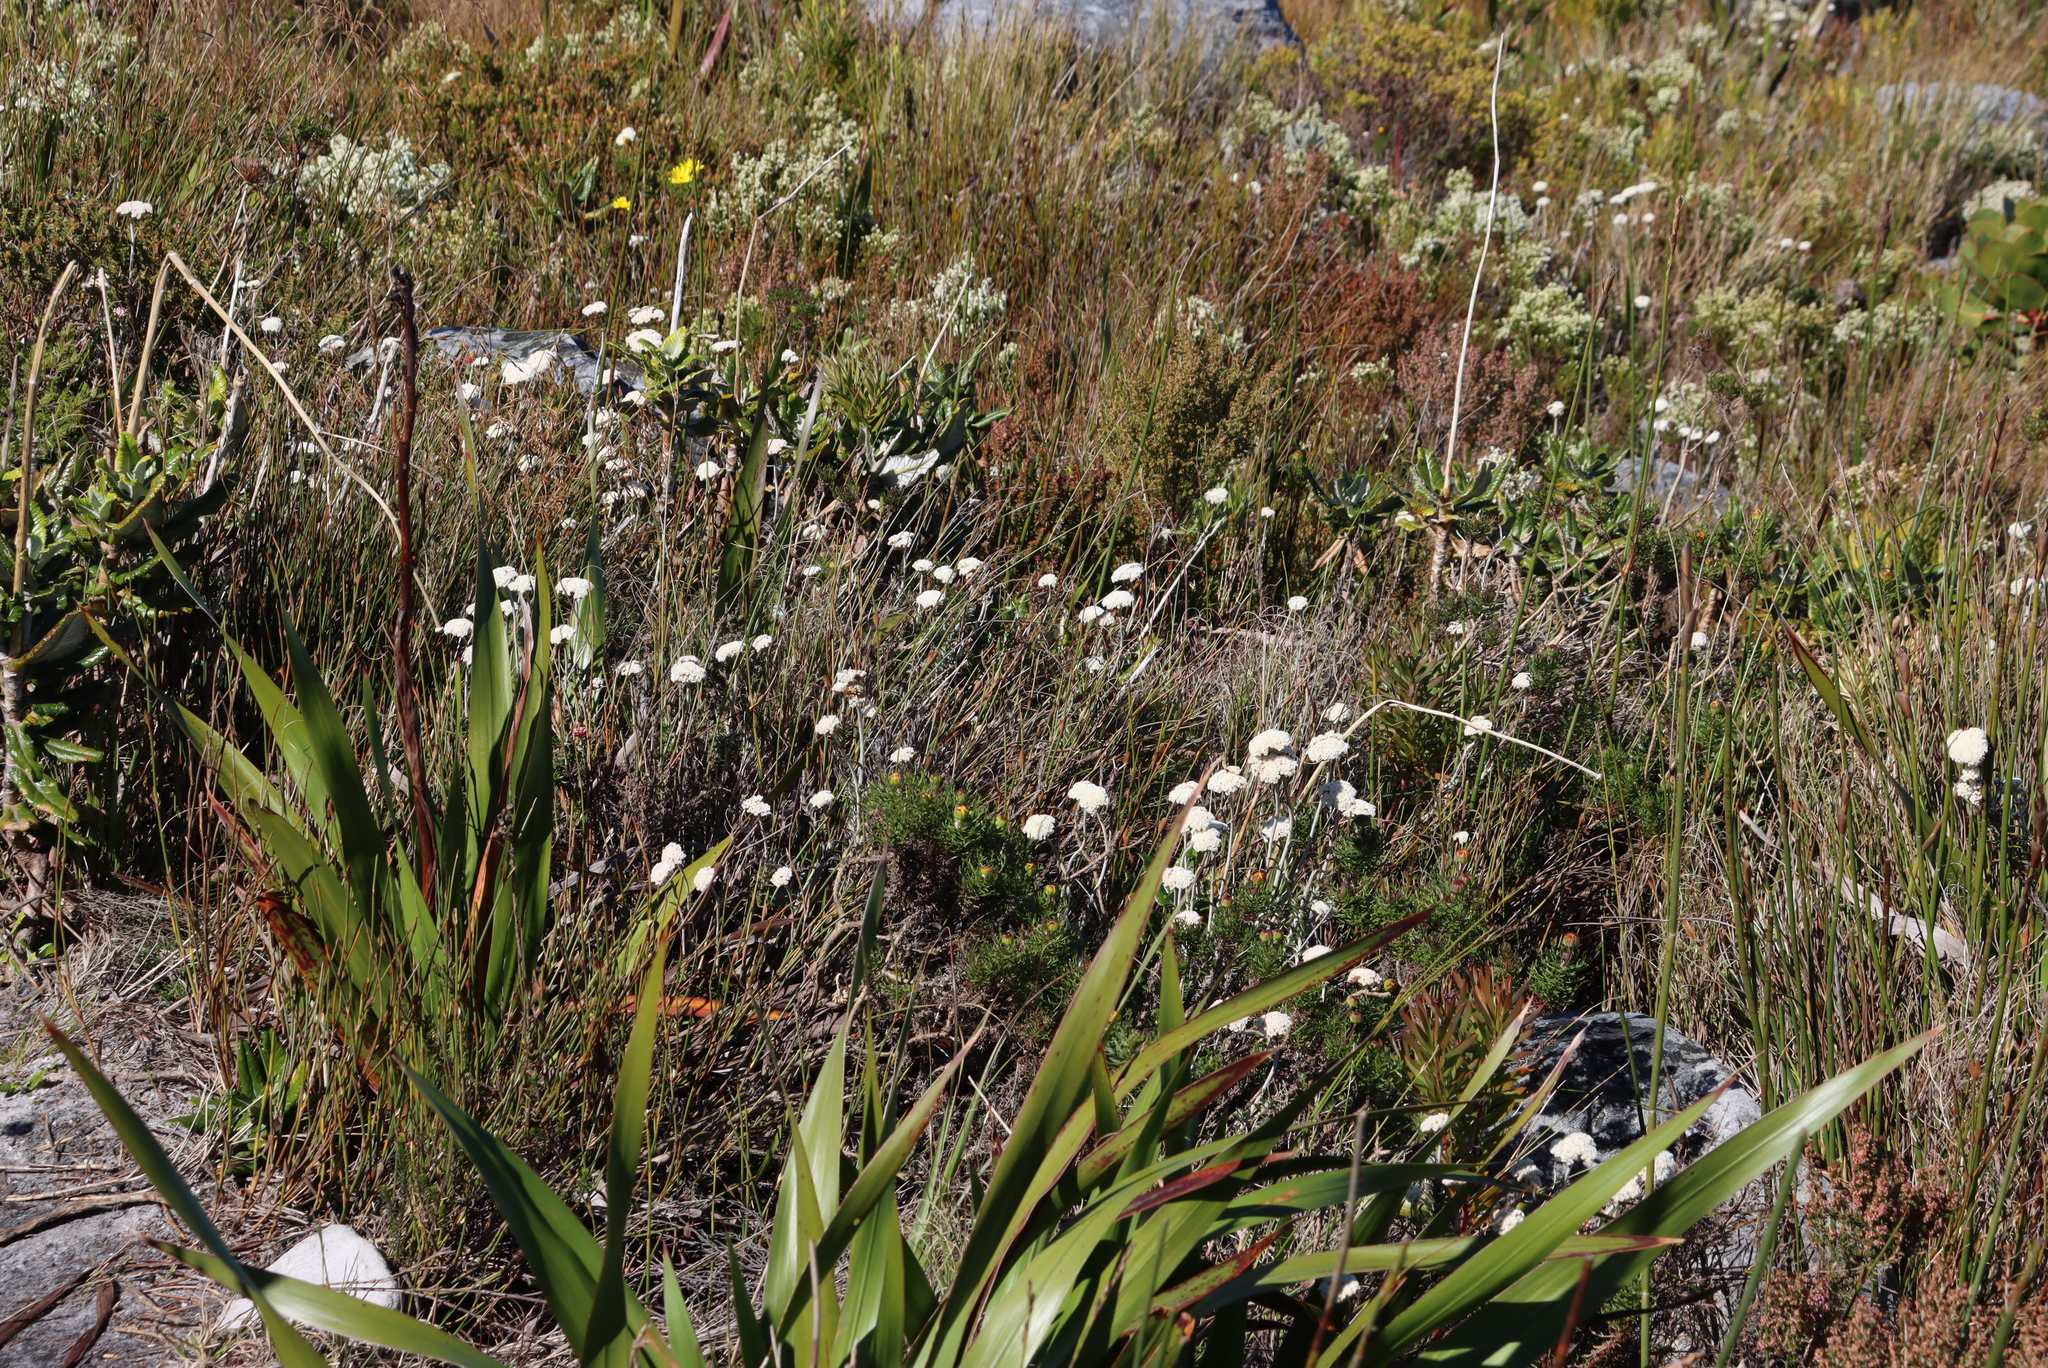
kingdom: Plantae
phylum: Tracheophyta
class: Magnoliopsida
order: Asterales
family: Asteraceae
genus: Anaxeton
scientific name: Anaxeton arborescens
